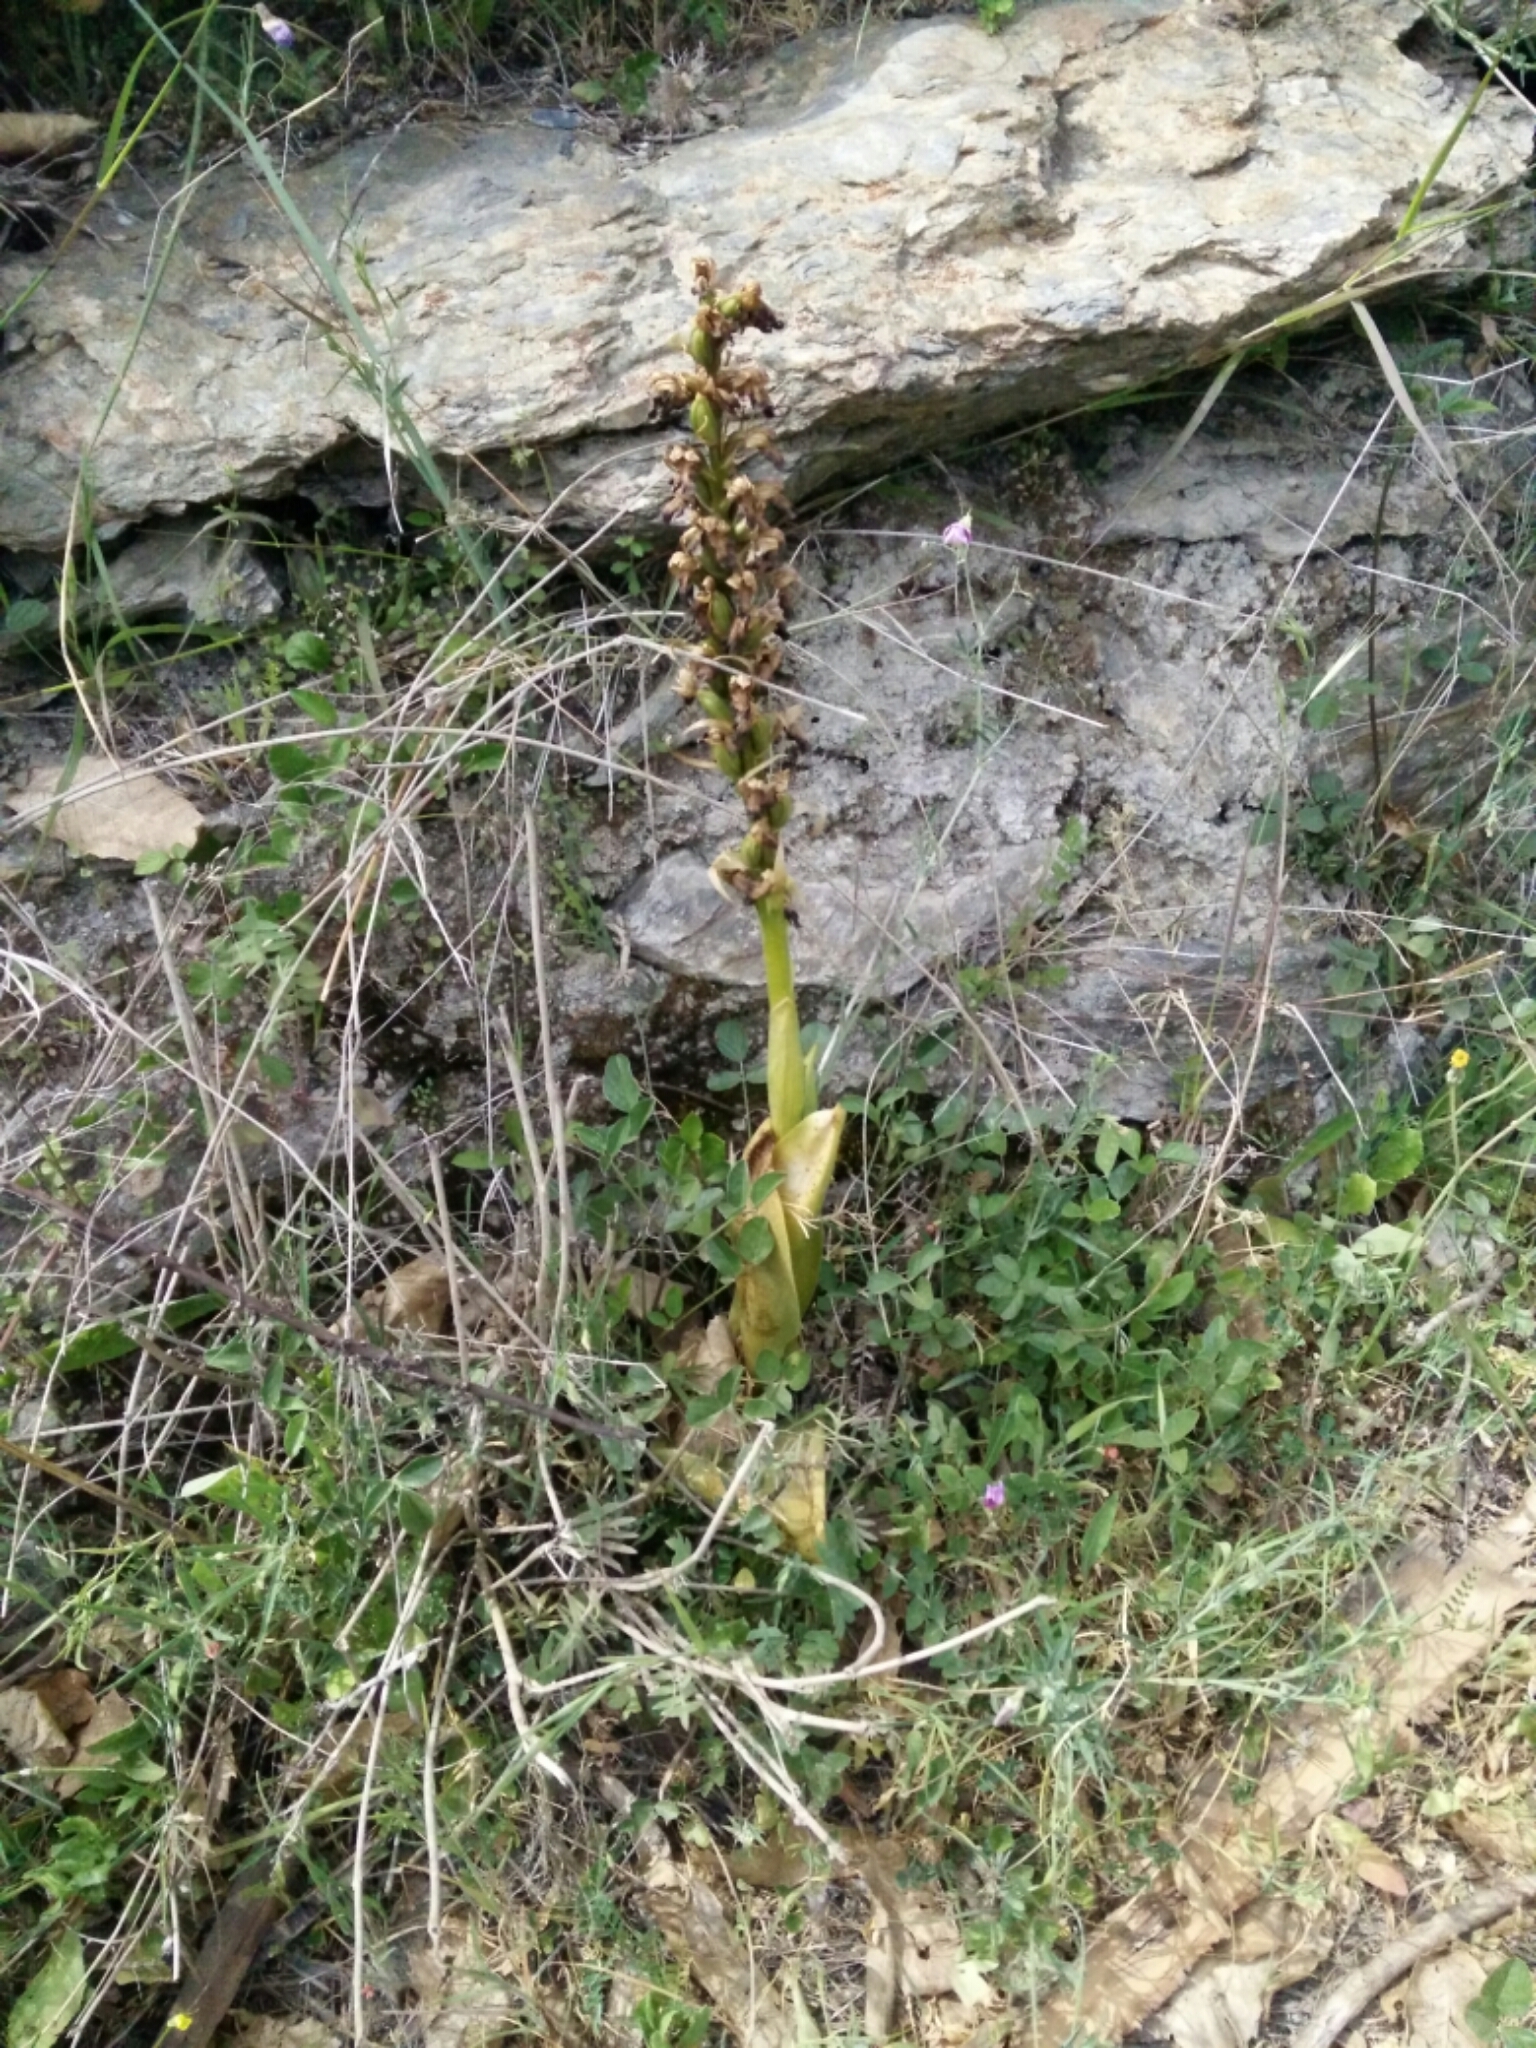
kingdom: Plantae
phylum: Tracheophyta
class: Liliopsida
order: Asparagales
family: Orchidaceae
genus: Himantoglossum
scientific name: Himantoglossum robertianum
